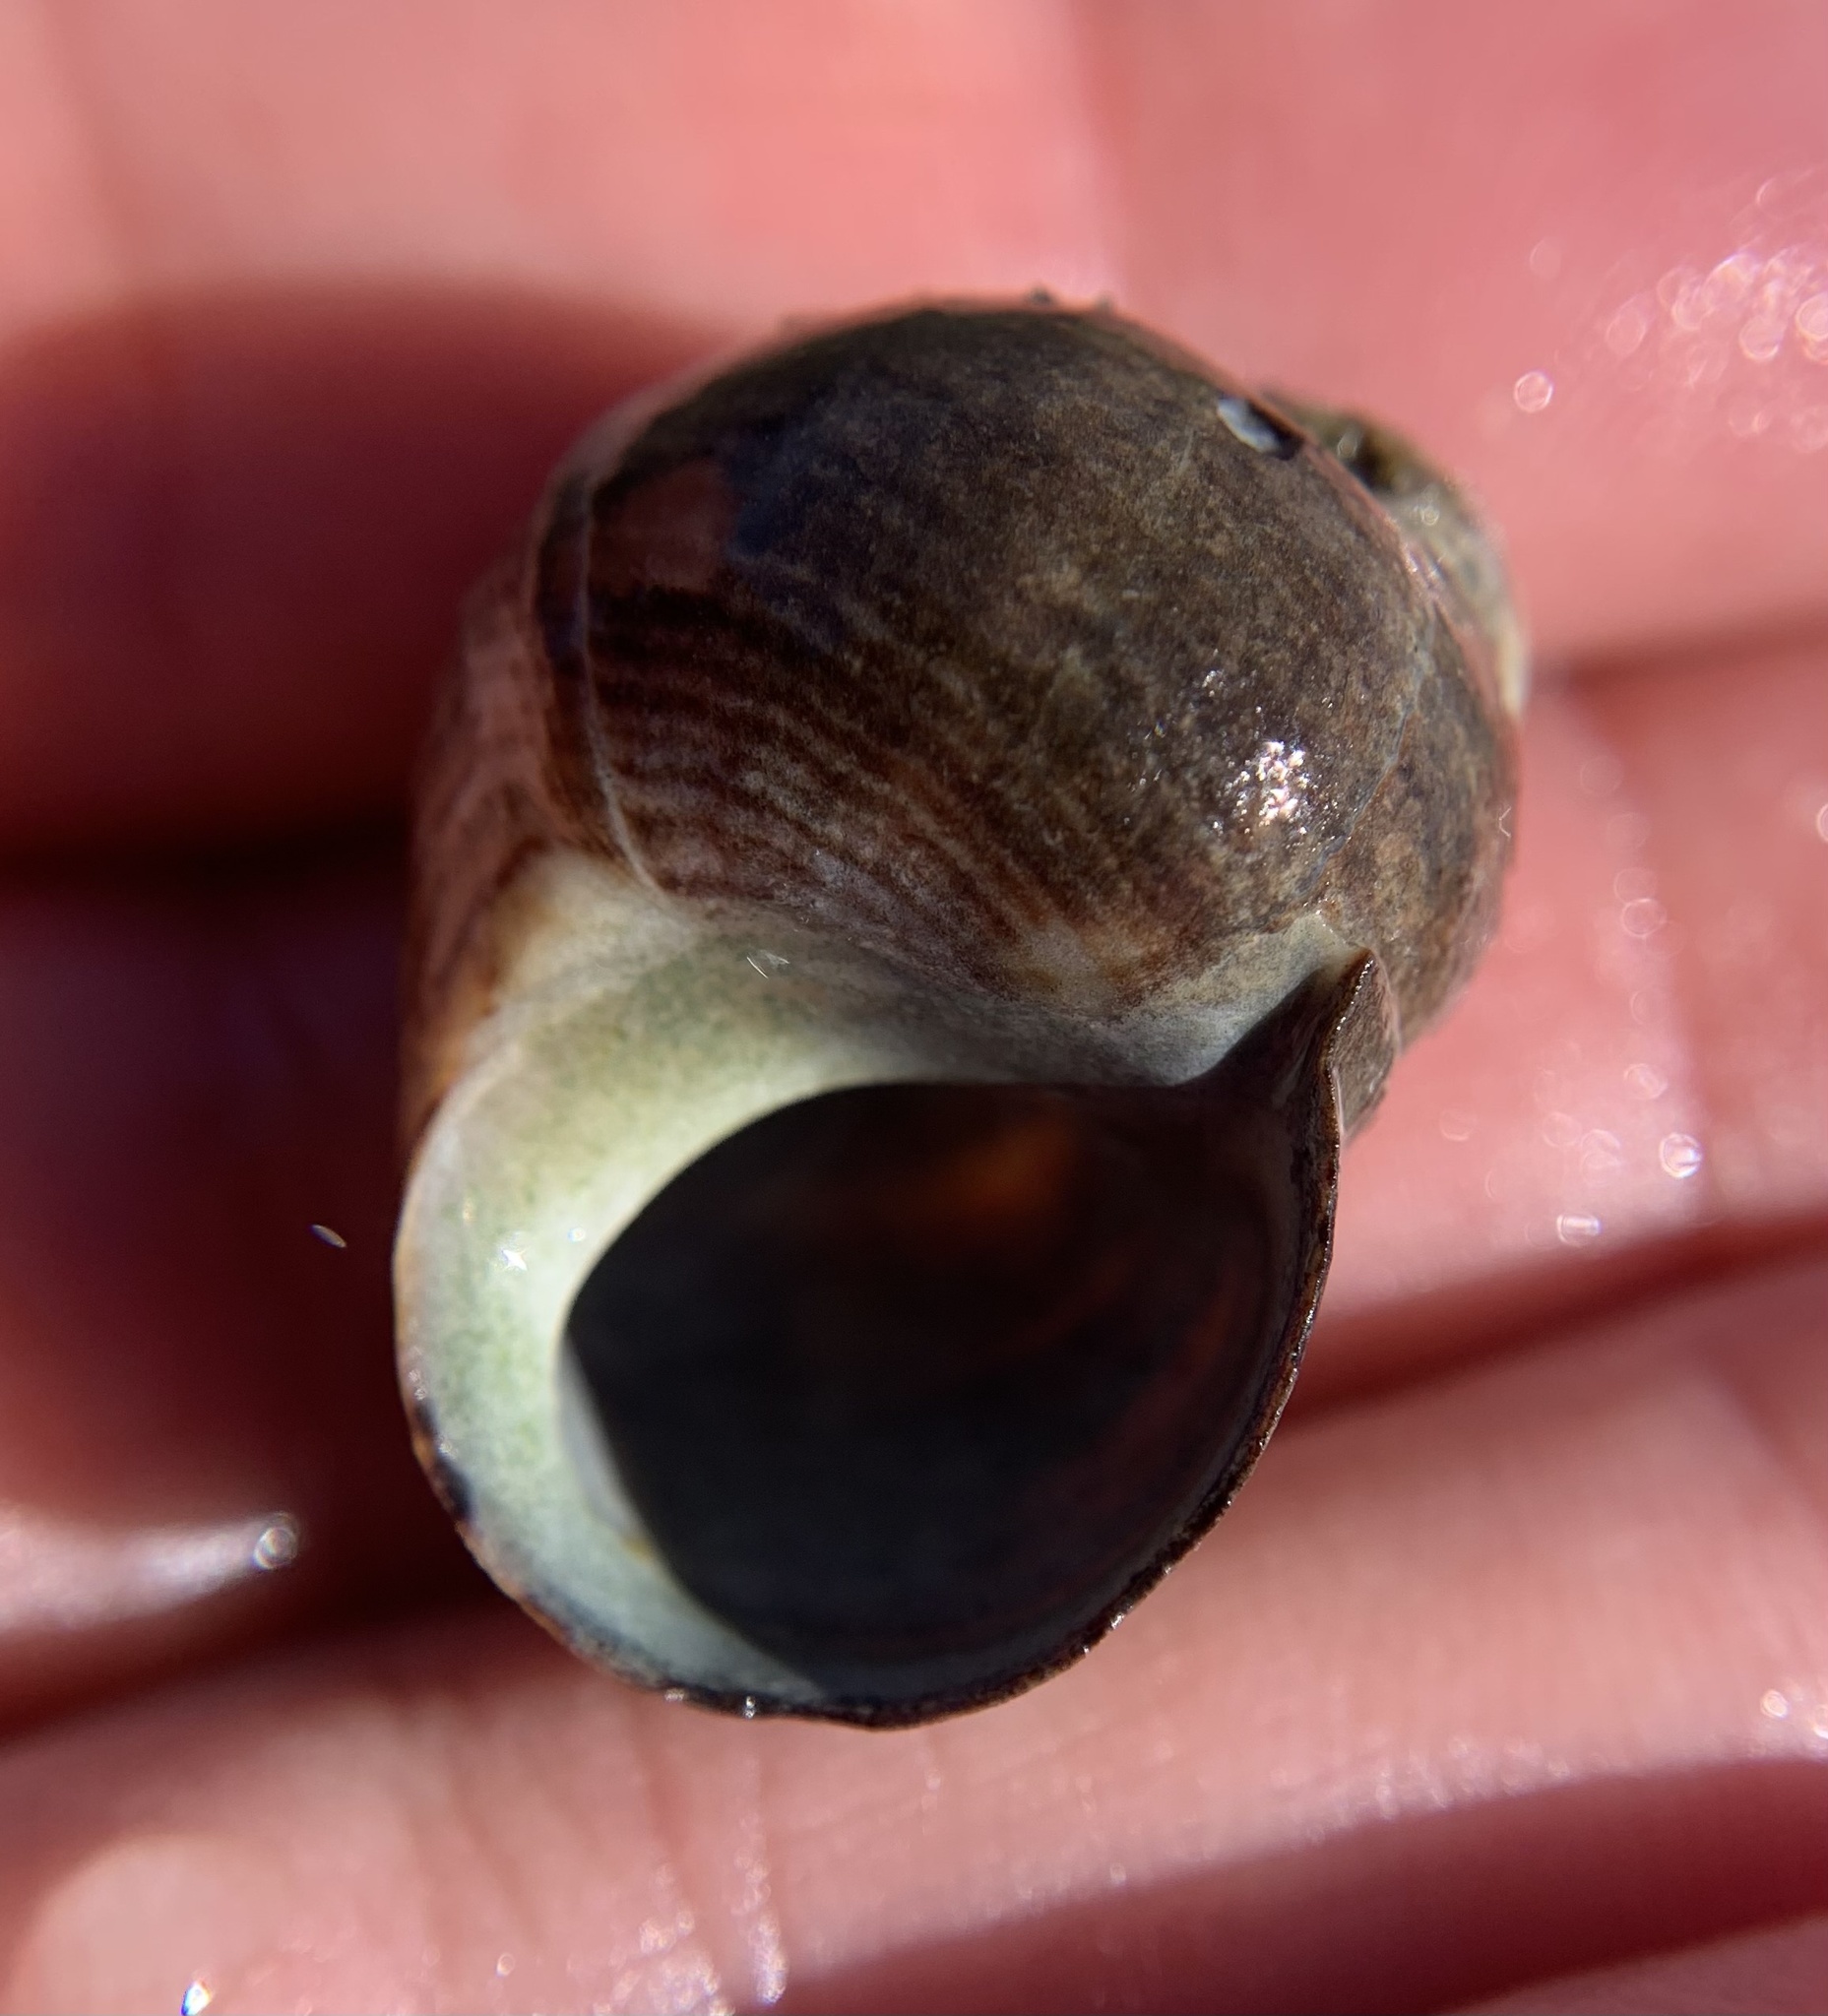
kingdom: Animalia
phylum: Mollusca
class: Gastropoda
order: Littorinimorpha
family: Littorinidae
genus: Littorina
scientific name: Littorina littorea
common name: Common periwinkle
